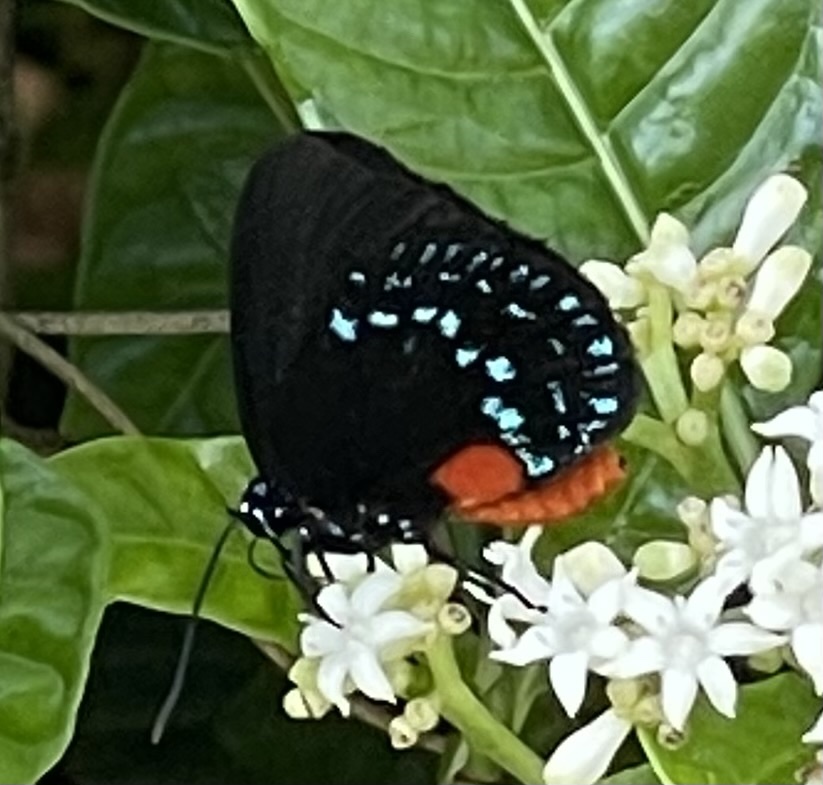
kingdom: Animalia
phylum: Arthropoda
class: Insecta
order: Lepidoptera
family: Lycaenidae
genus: Eumaeus
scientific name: Eumaeus atala
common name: Atala
